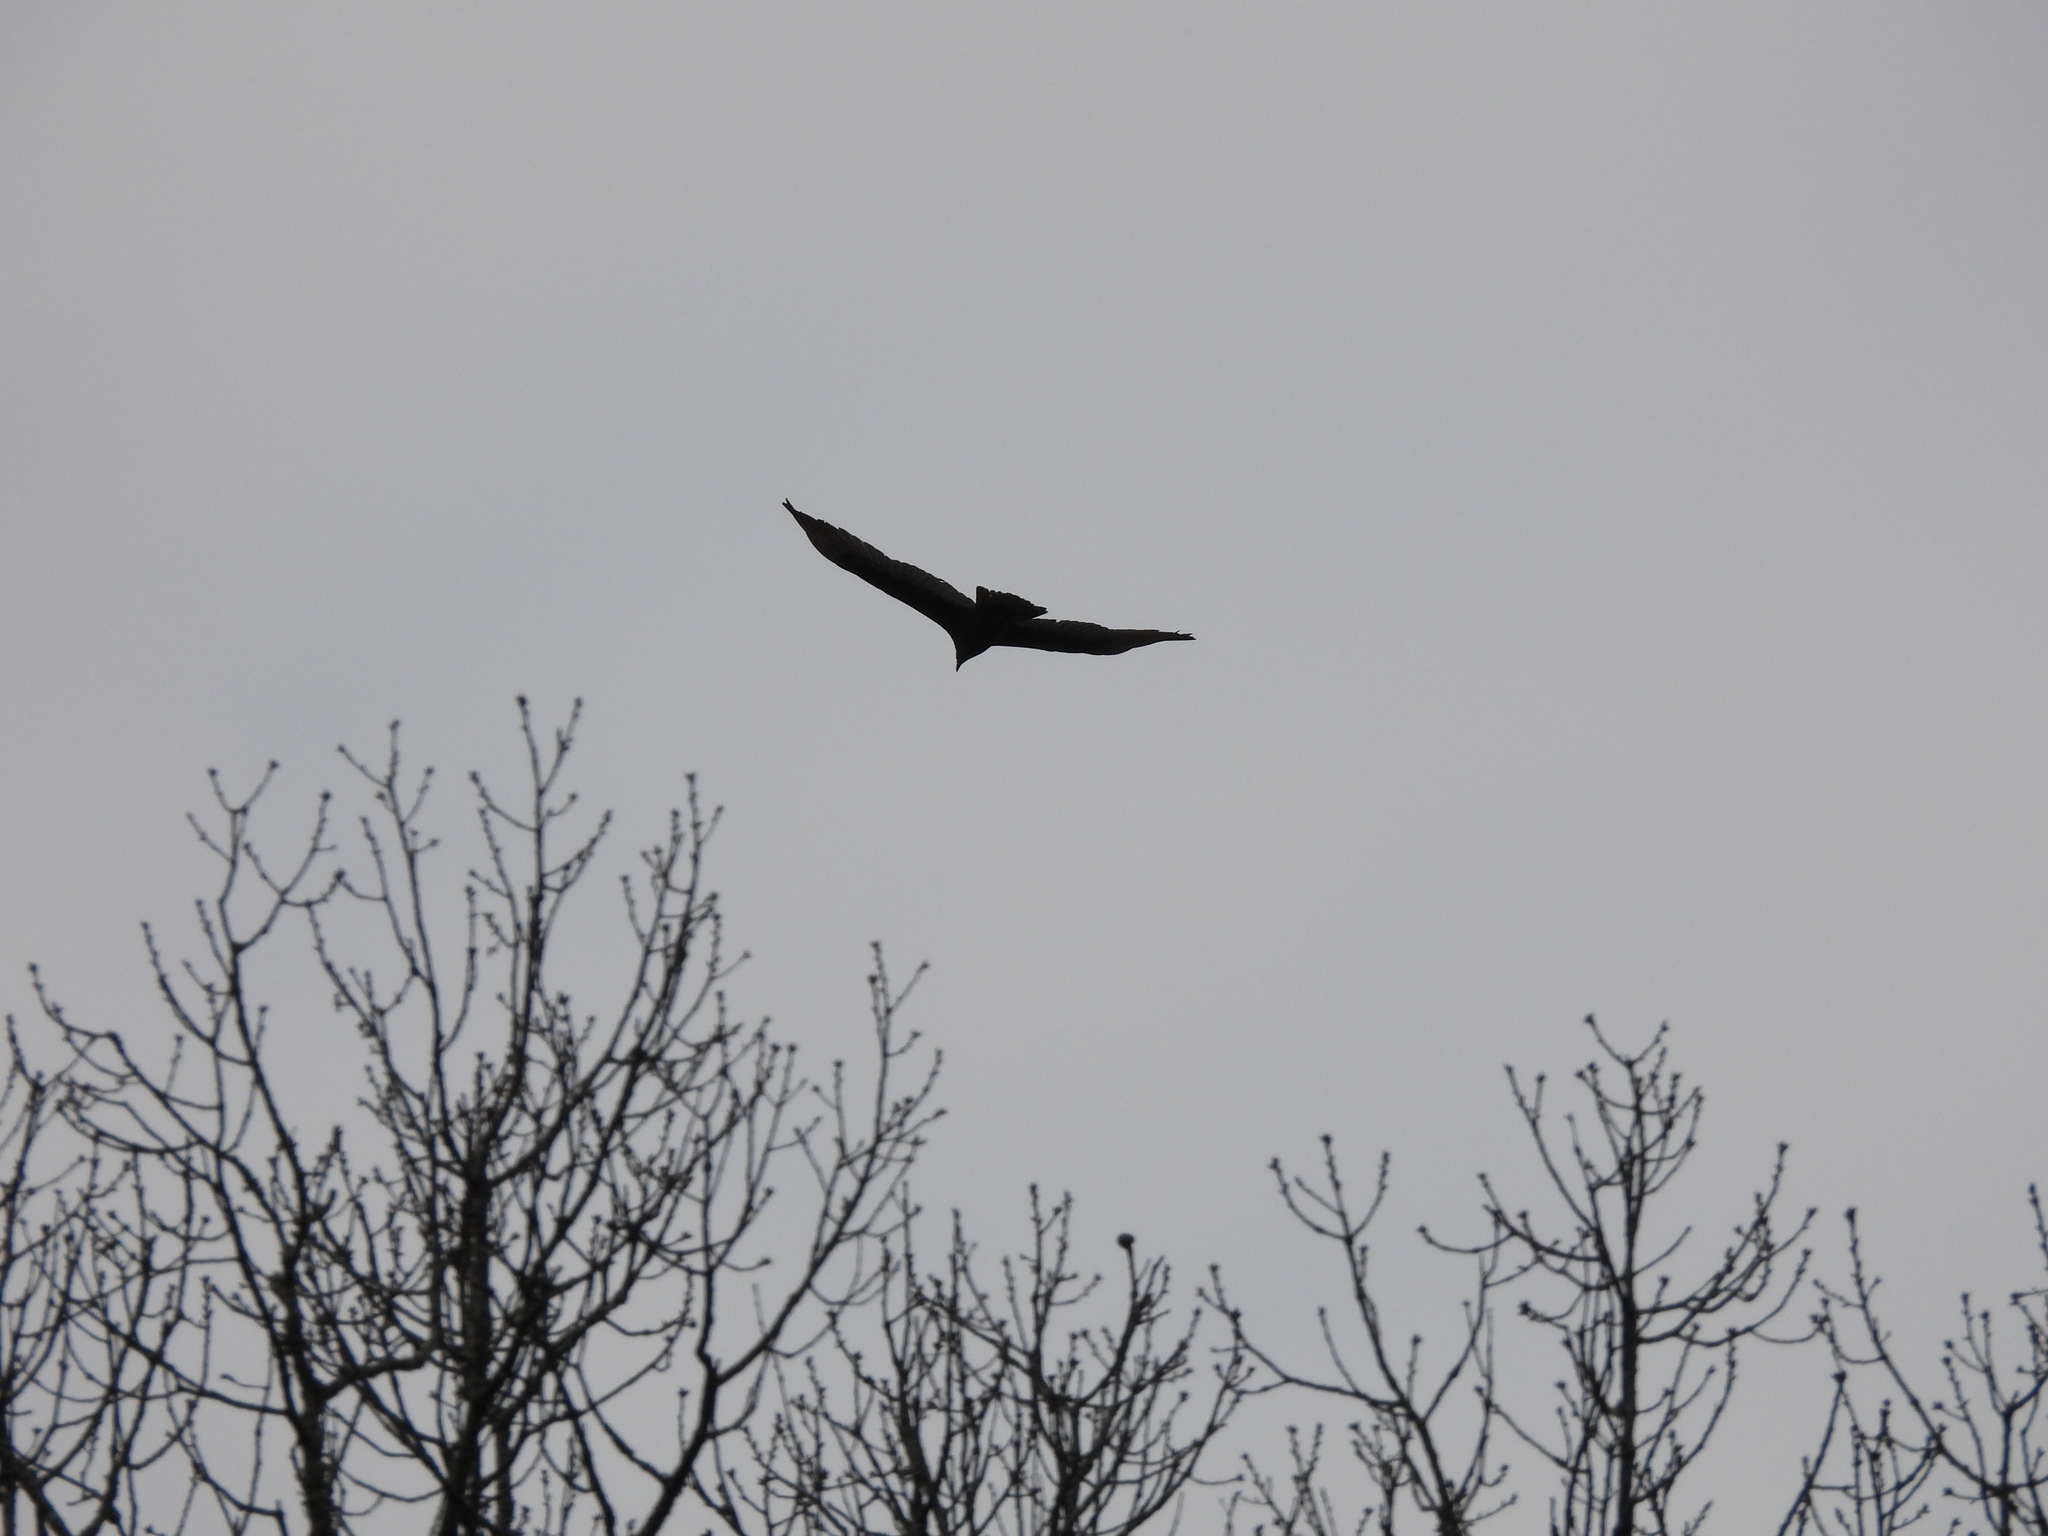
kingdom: Animalia
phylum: Chordata
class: Aves
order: Accipitriformes
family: Cathartidae
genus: Cathartes
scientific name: Cathartes aura
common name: Turkey vulture
